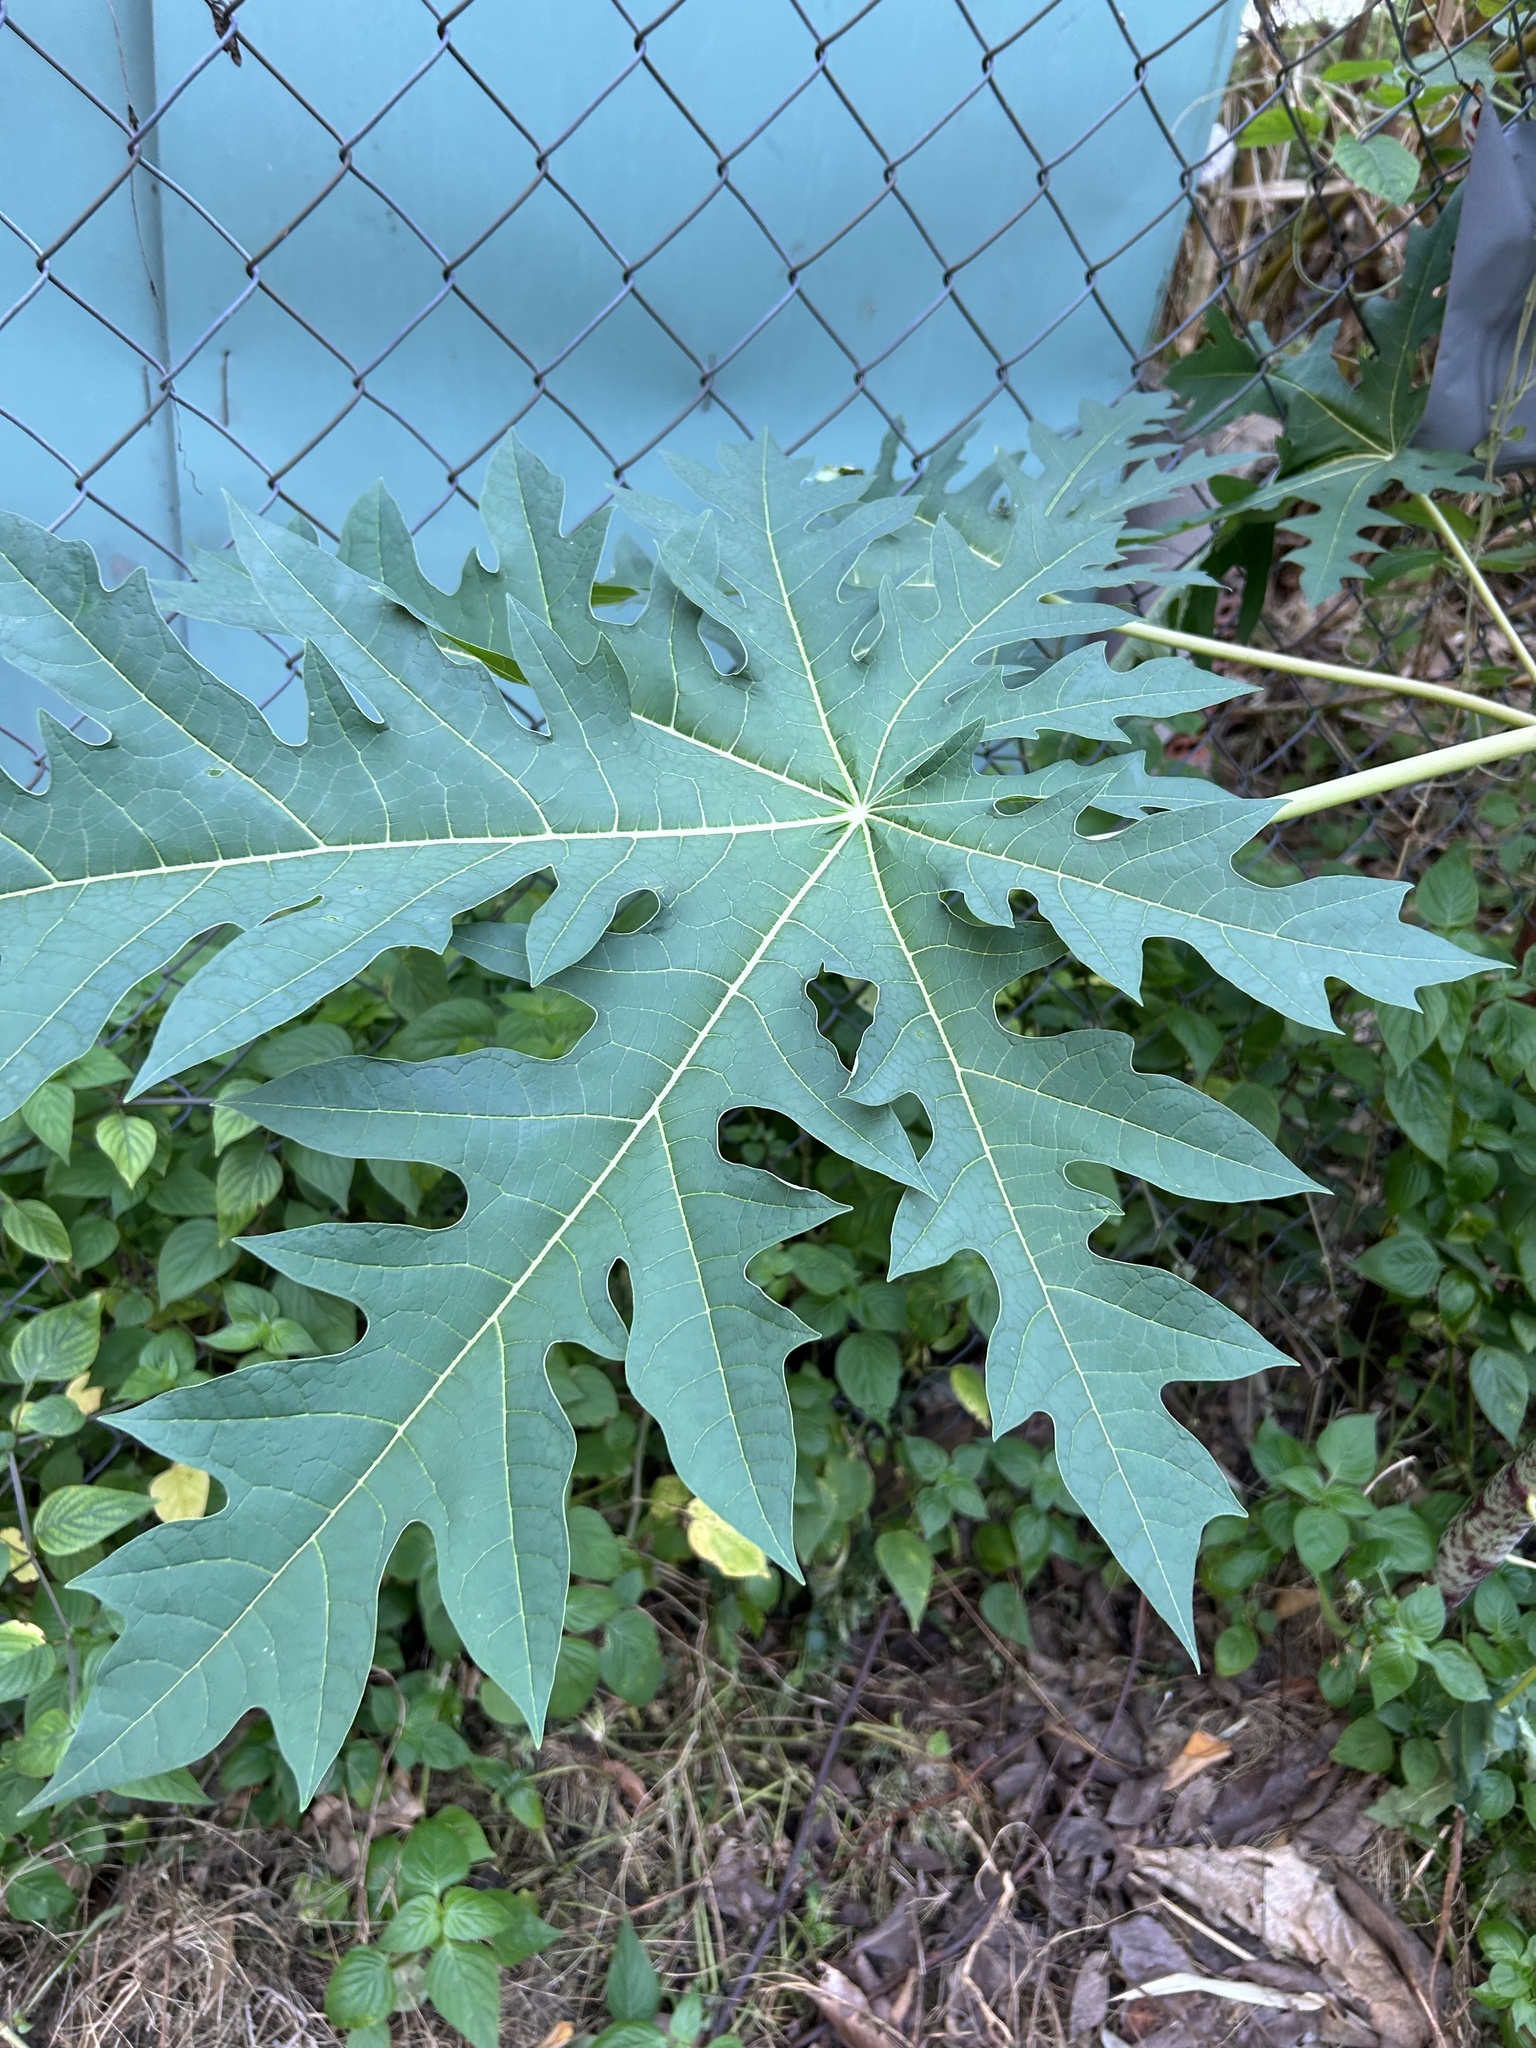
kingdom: Plantae
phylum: Tracheophyta
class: Magnoliopsida
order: Brassicales
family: Caricaceae
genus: Carica
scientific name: Carica papaya
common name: Papaya
